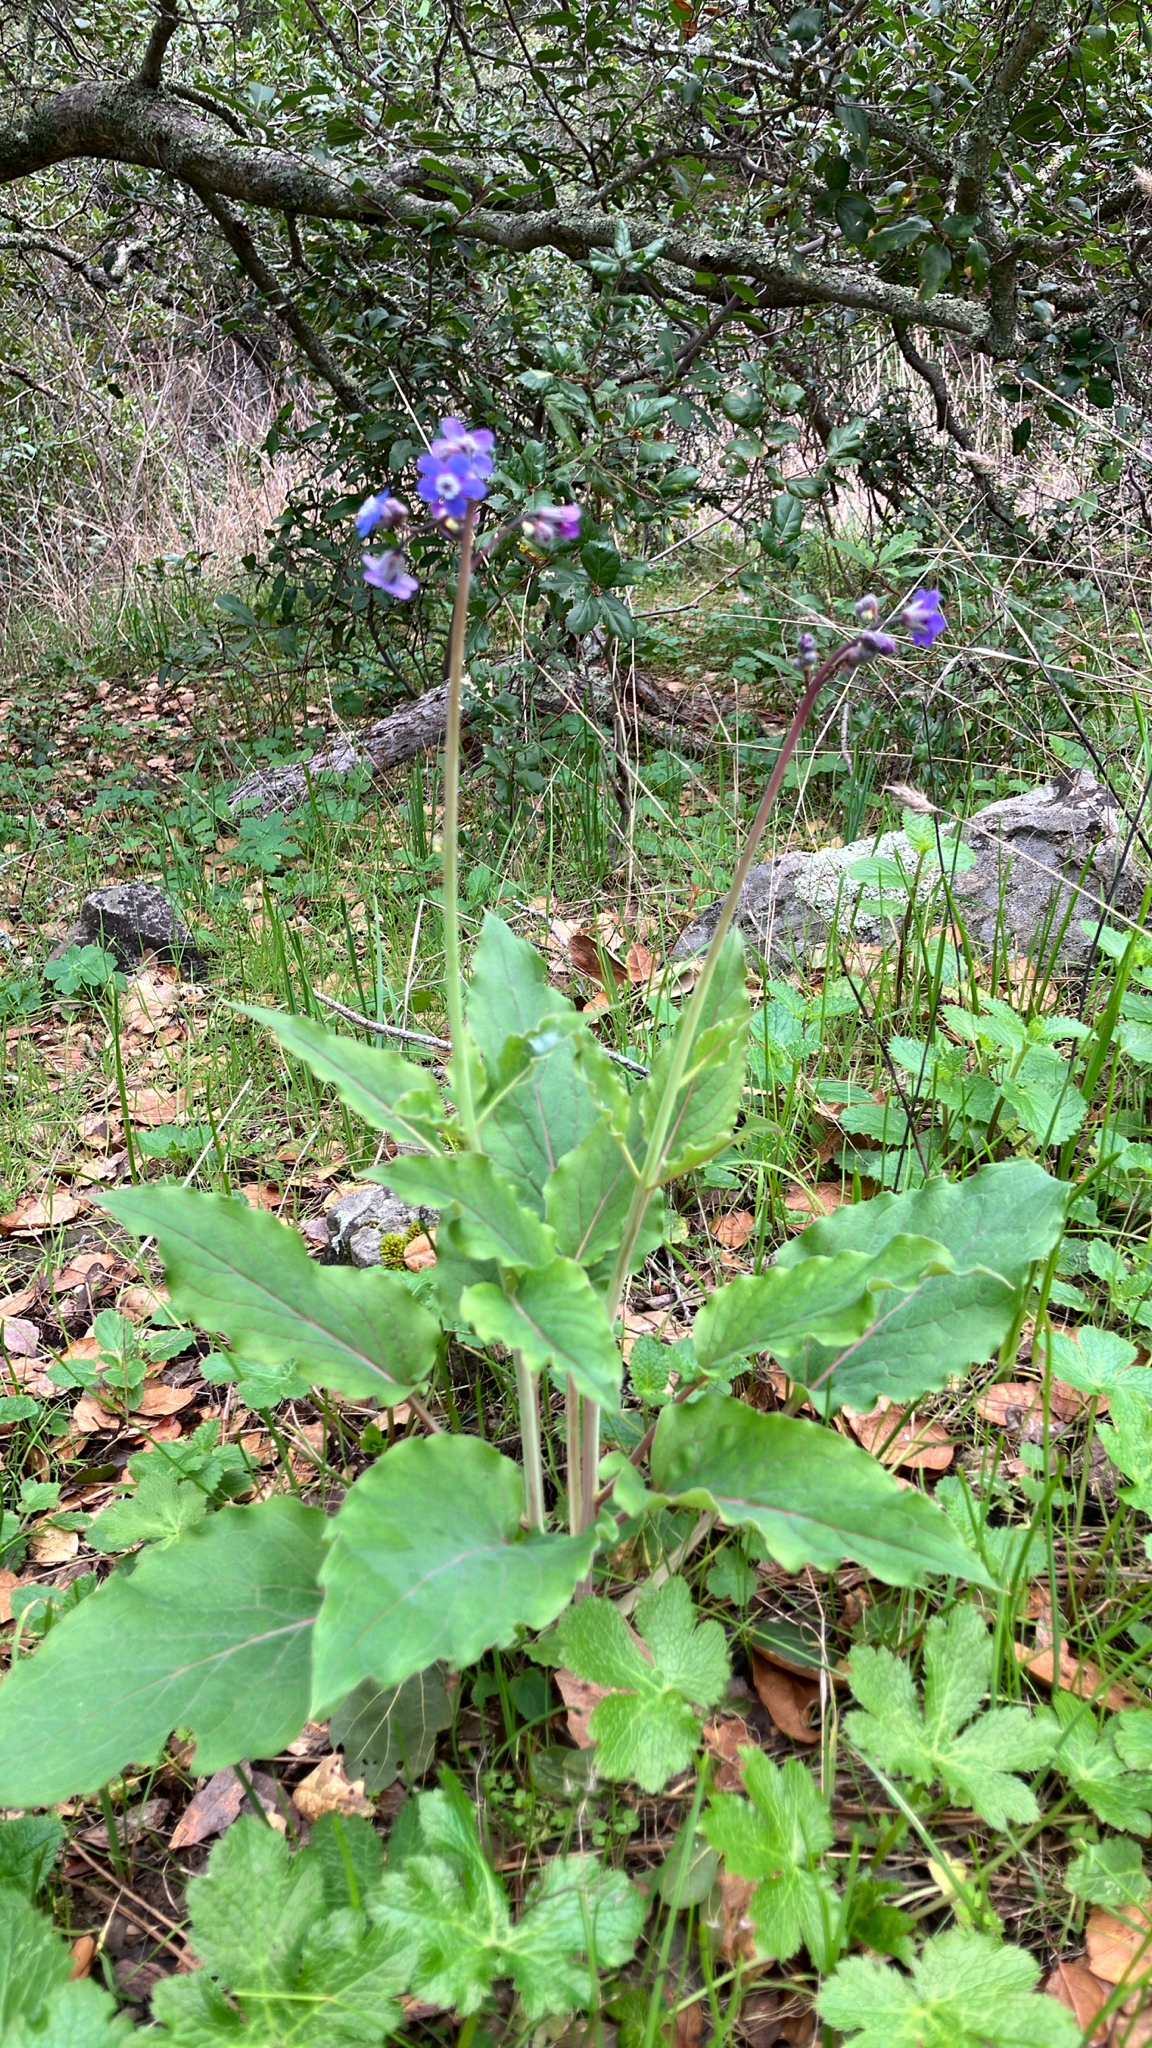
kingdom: Plantae
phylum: Tracheophyta
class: Magnoliopsida
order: Boraginales
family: Boraginaceae
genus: Adelinia
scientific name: Adelinia grande
